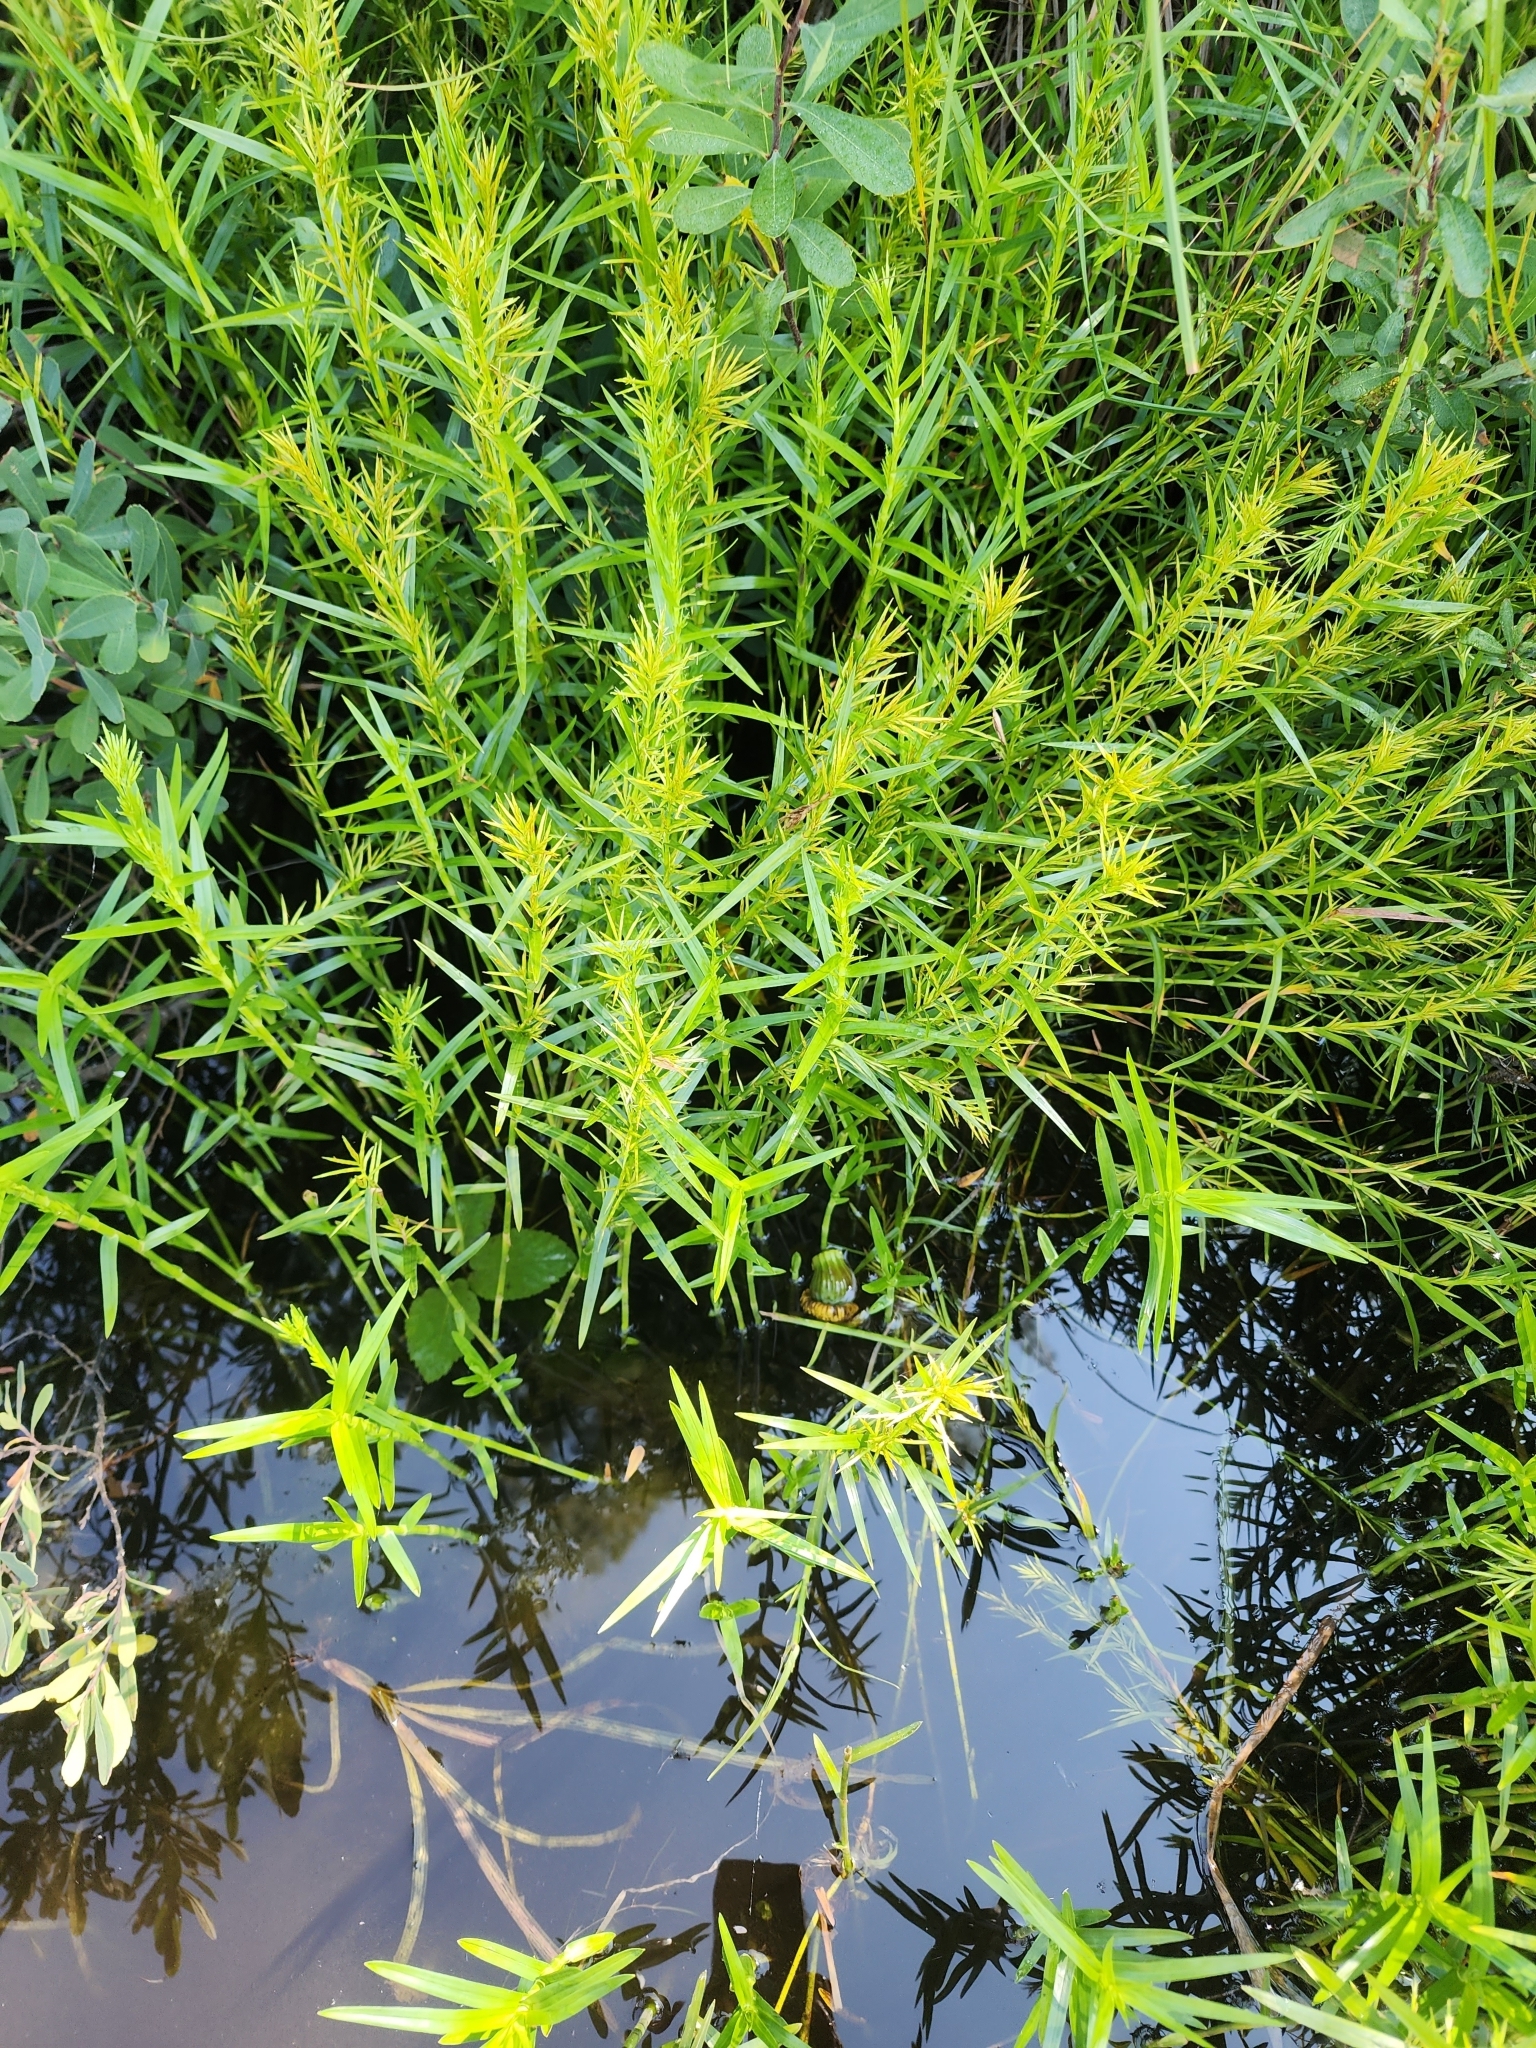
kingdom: Plantae
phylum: Tracheophyta
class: Liliopsida
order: Poales
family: Cyperaceae
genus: Dulichium
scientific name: Dulichium arundinaceum
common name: Three-way sedge
